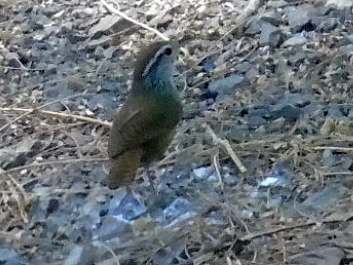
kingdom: Animalia
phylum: Chordata
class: Aves
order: Passeriformes
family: Troglodytidae
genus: Thryophilus
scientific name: Thryophilus sinaloa
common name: Sinaloa wren
